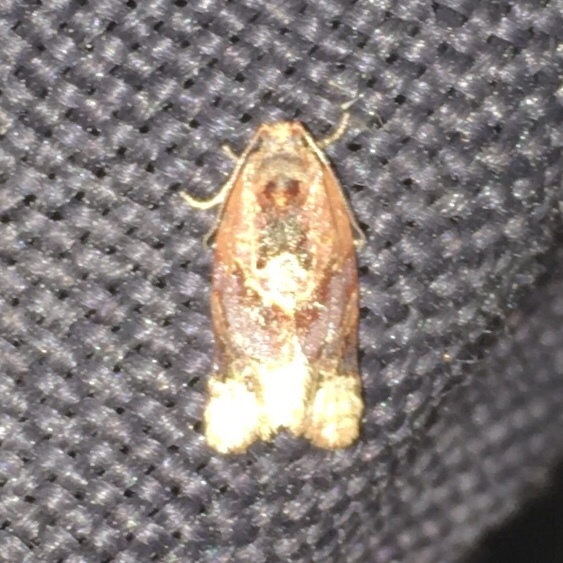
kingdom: Animalia
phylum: Arthropoda
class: Insecta
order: Lepidoptera
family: Tortricidae
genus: Argyrotaenia
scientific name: Argyrotaenia velutinana
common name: Red-banded leafroller moth
